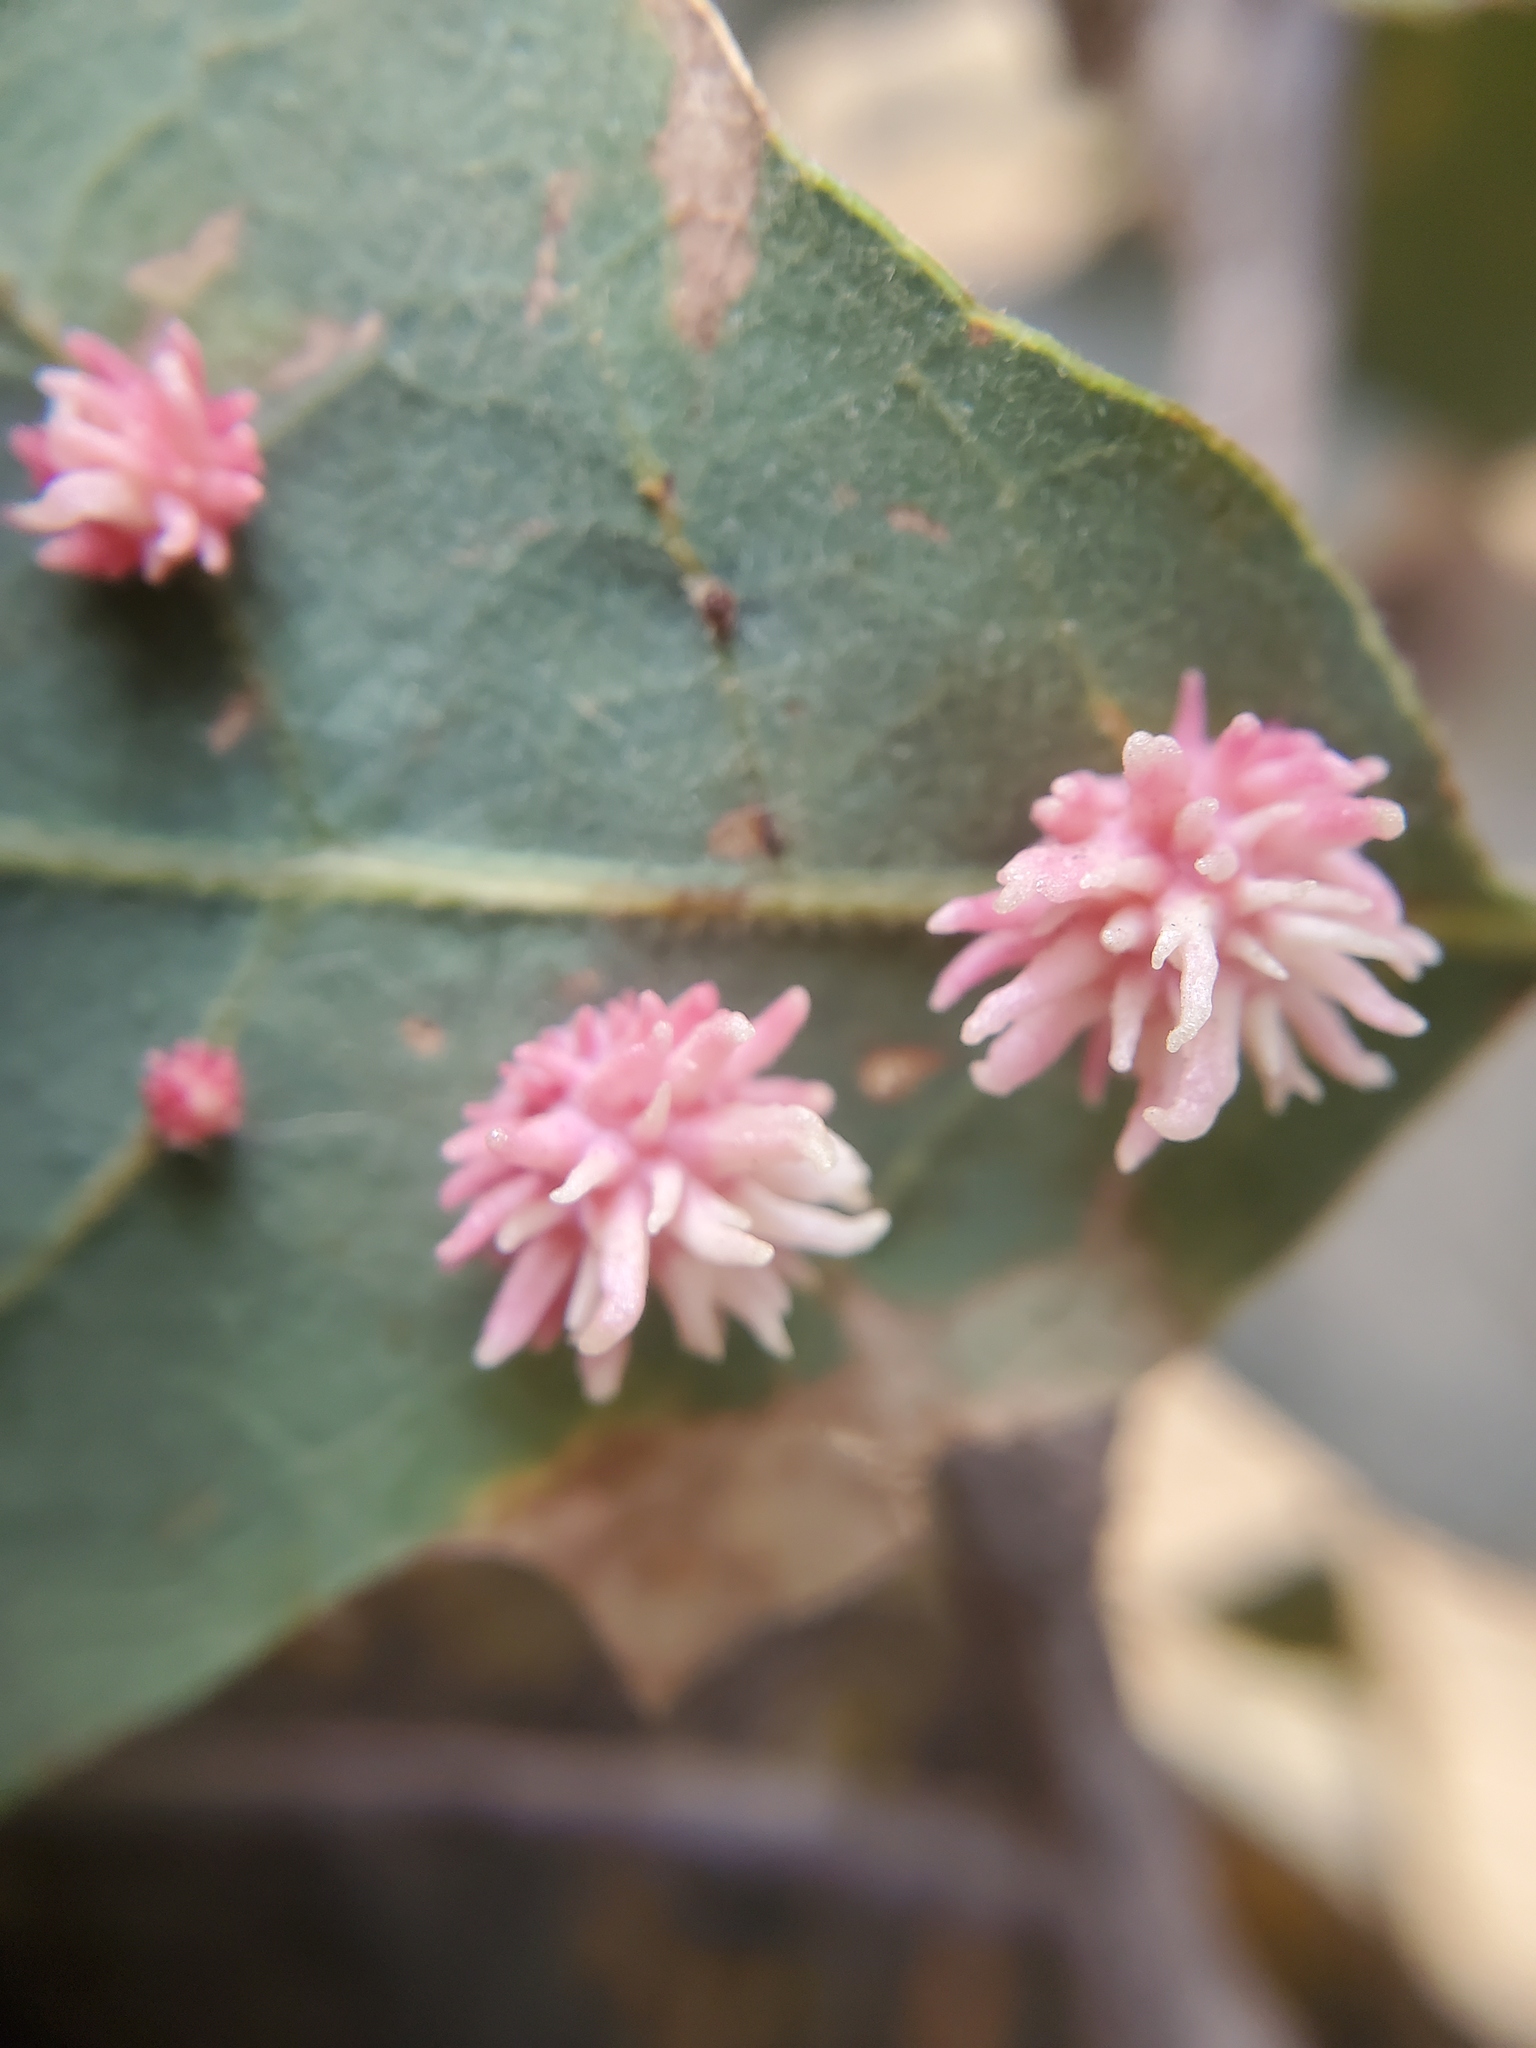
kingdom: Animalia
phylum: Arthropoda
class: Insecta
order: Hymenoptera
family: Cynipidae
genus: Cynips
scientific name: Cynips
